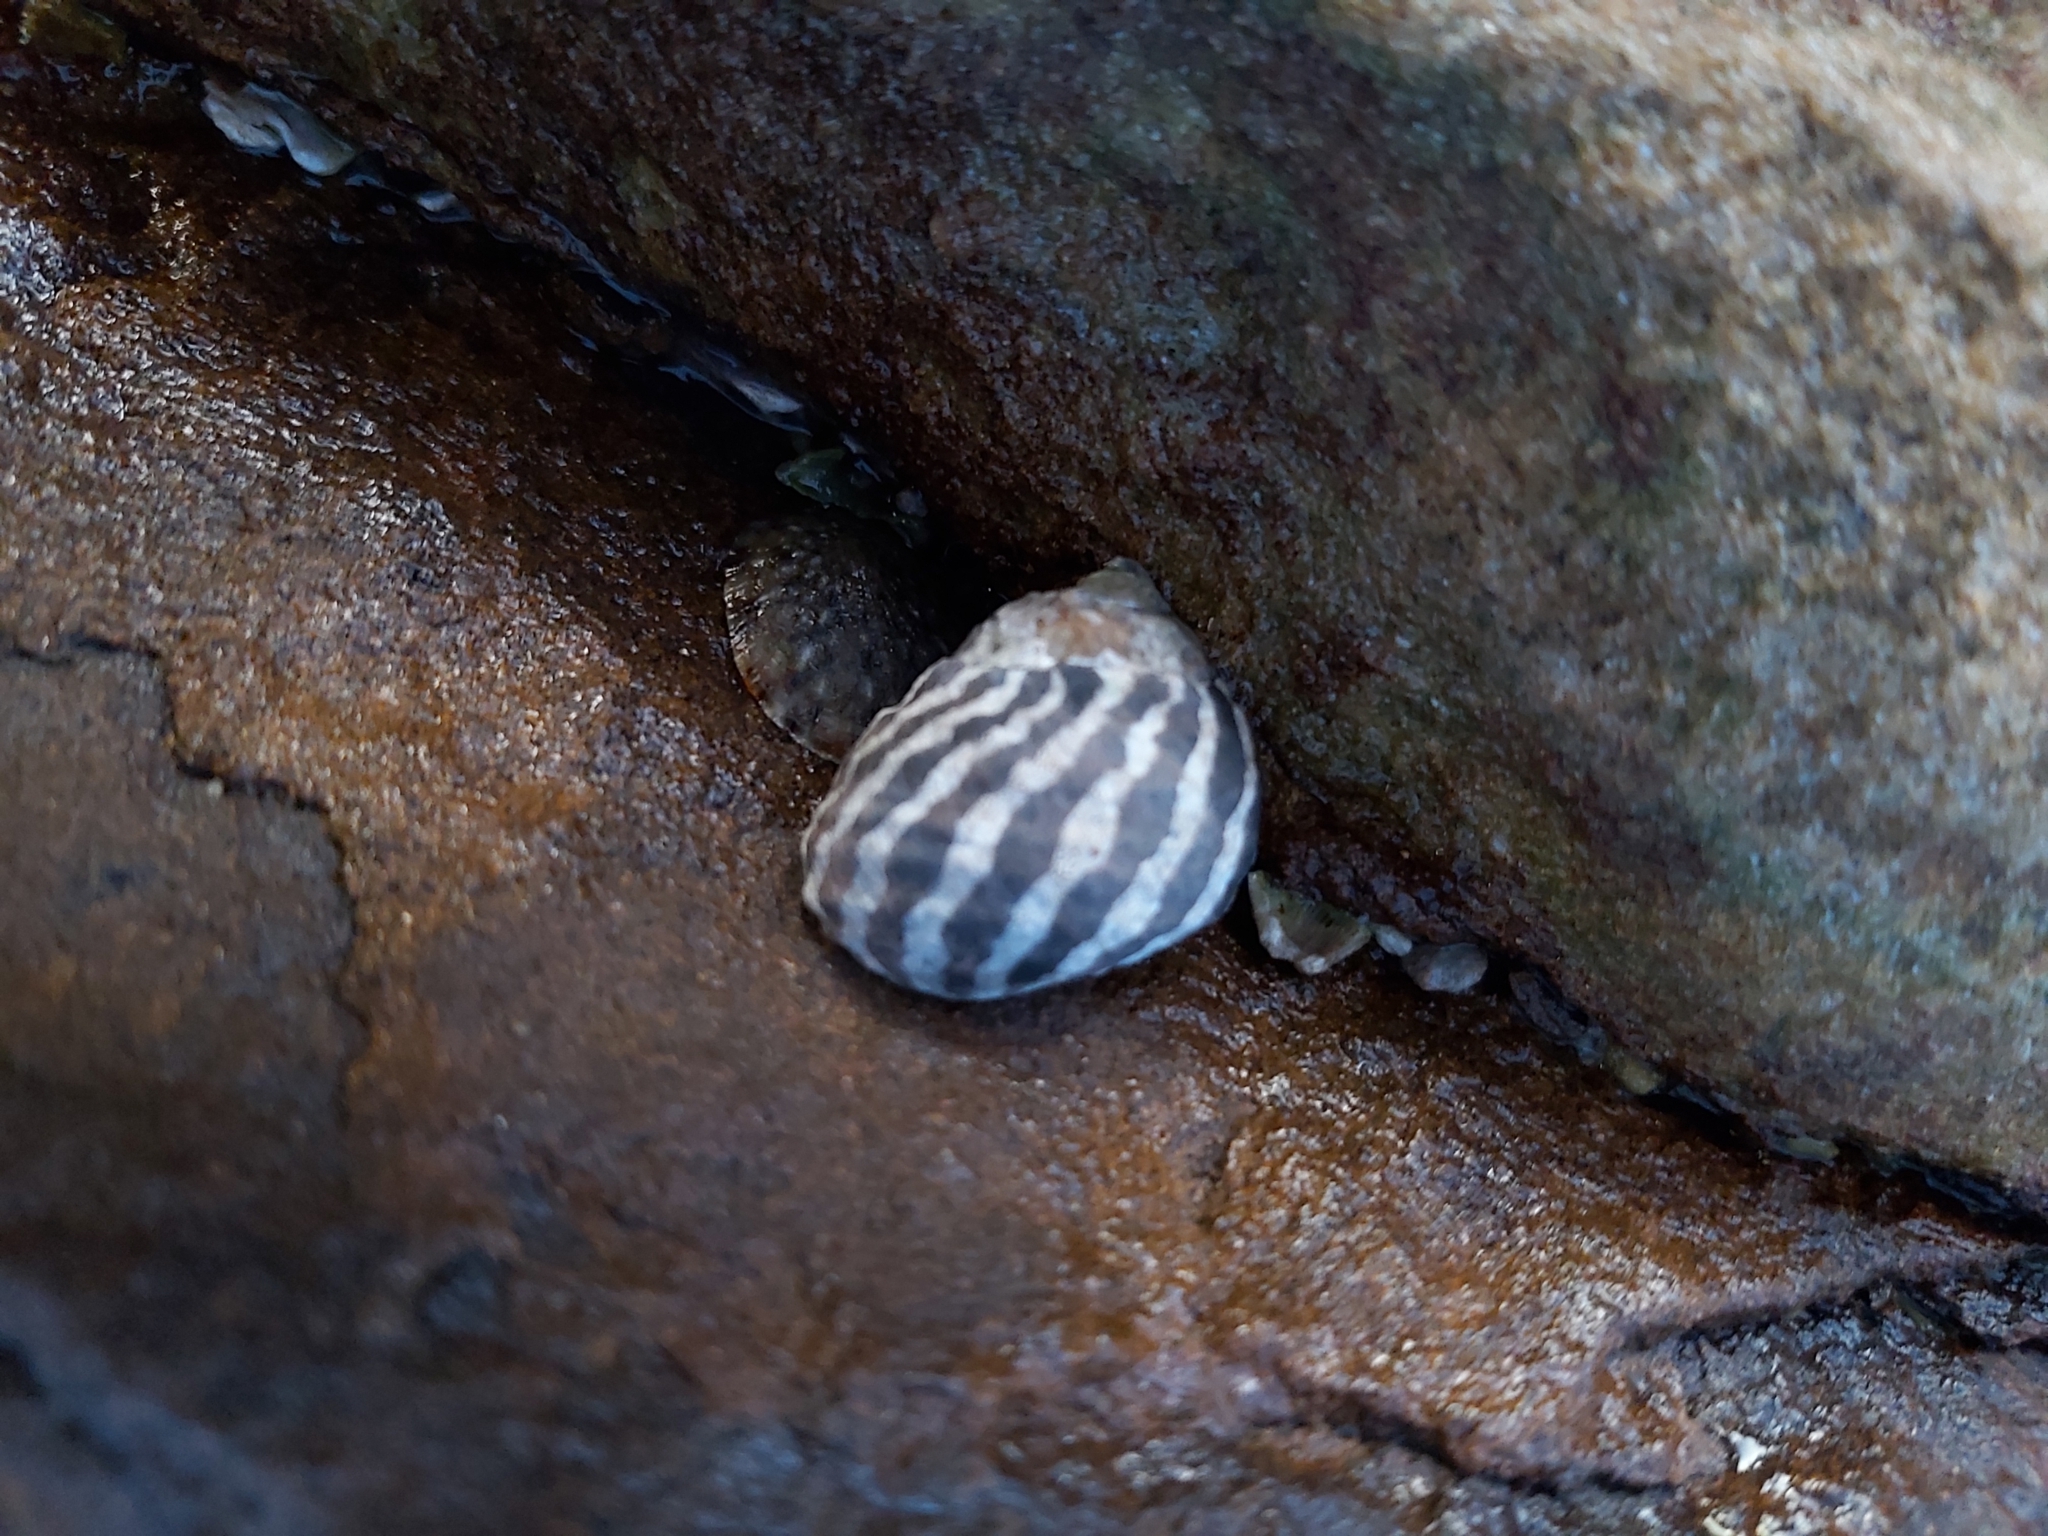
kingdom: Animalia
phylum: Mollusca
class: Gastropoda
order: Trochida
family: Trochidae
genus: Austrocochlea
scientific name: Austrocochlea porcata
